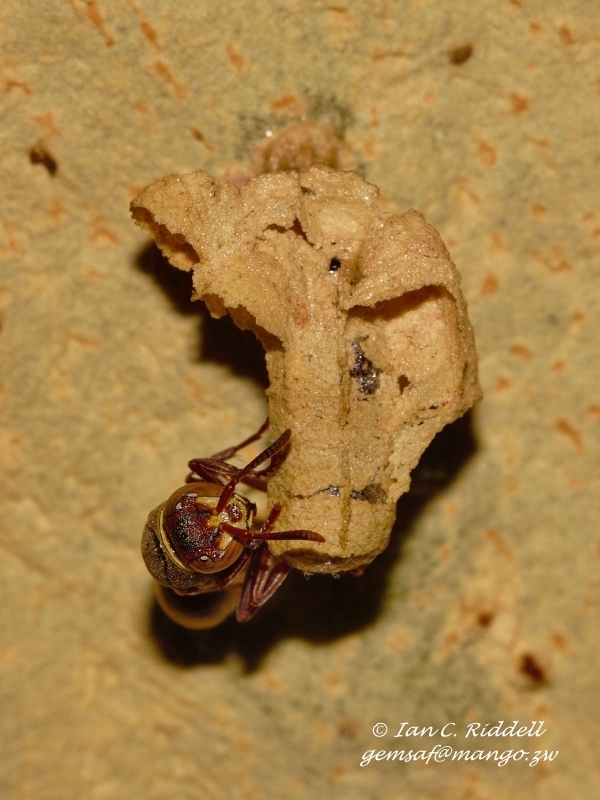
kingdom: Animalia
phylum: Arthropoda
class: Insecta
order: Hymenoptera
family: Vespidae
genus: Ropalidia
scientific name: Ropalidia
